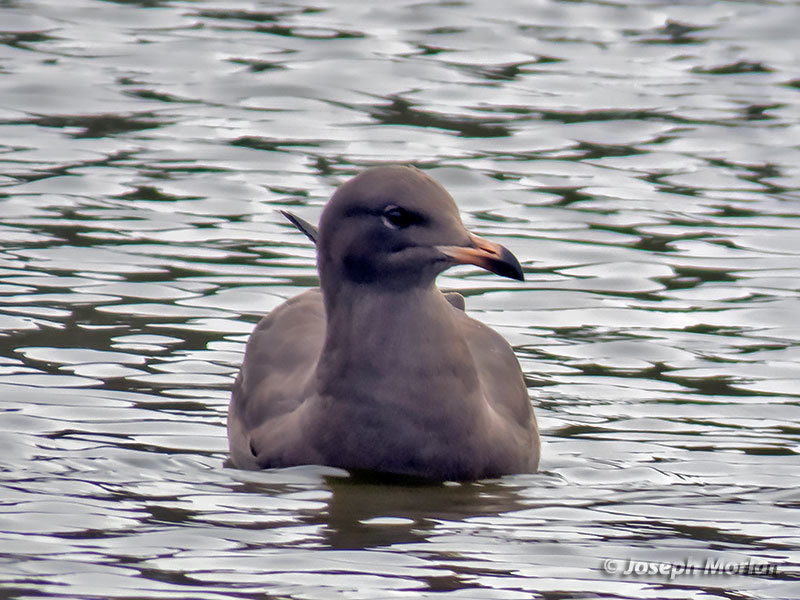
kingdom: Animalia
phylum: Chordata
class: Aves
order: Charadriiformes
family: Laridae
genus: Larus
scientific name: Larus heermanni
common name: Heermann's gull
